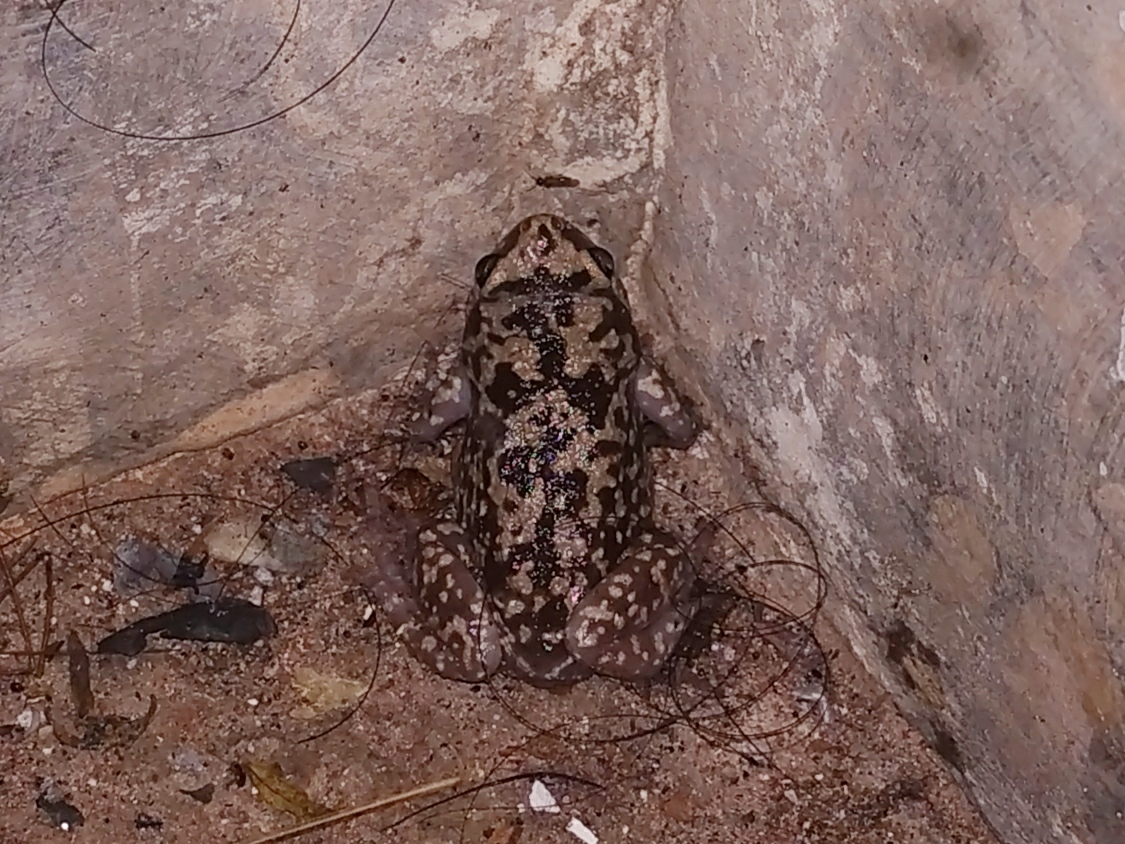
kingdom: Animalia
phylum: Chordata
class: Amphibia
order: Anura
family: Microhylidae
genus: Uperodon
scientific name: Uperodon variegatus
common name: Eluru dot frog
